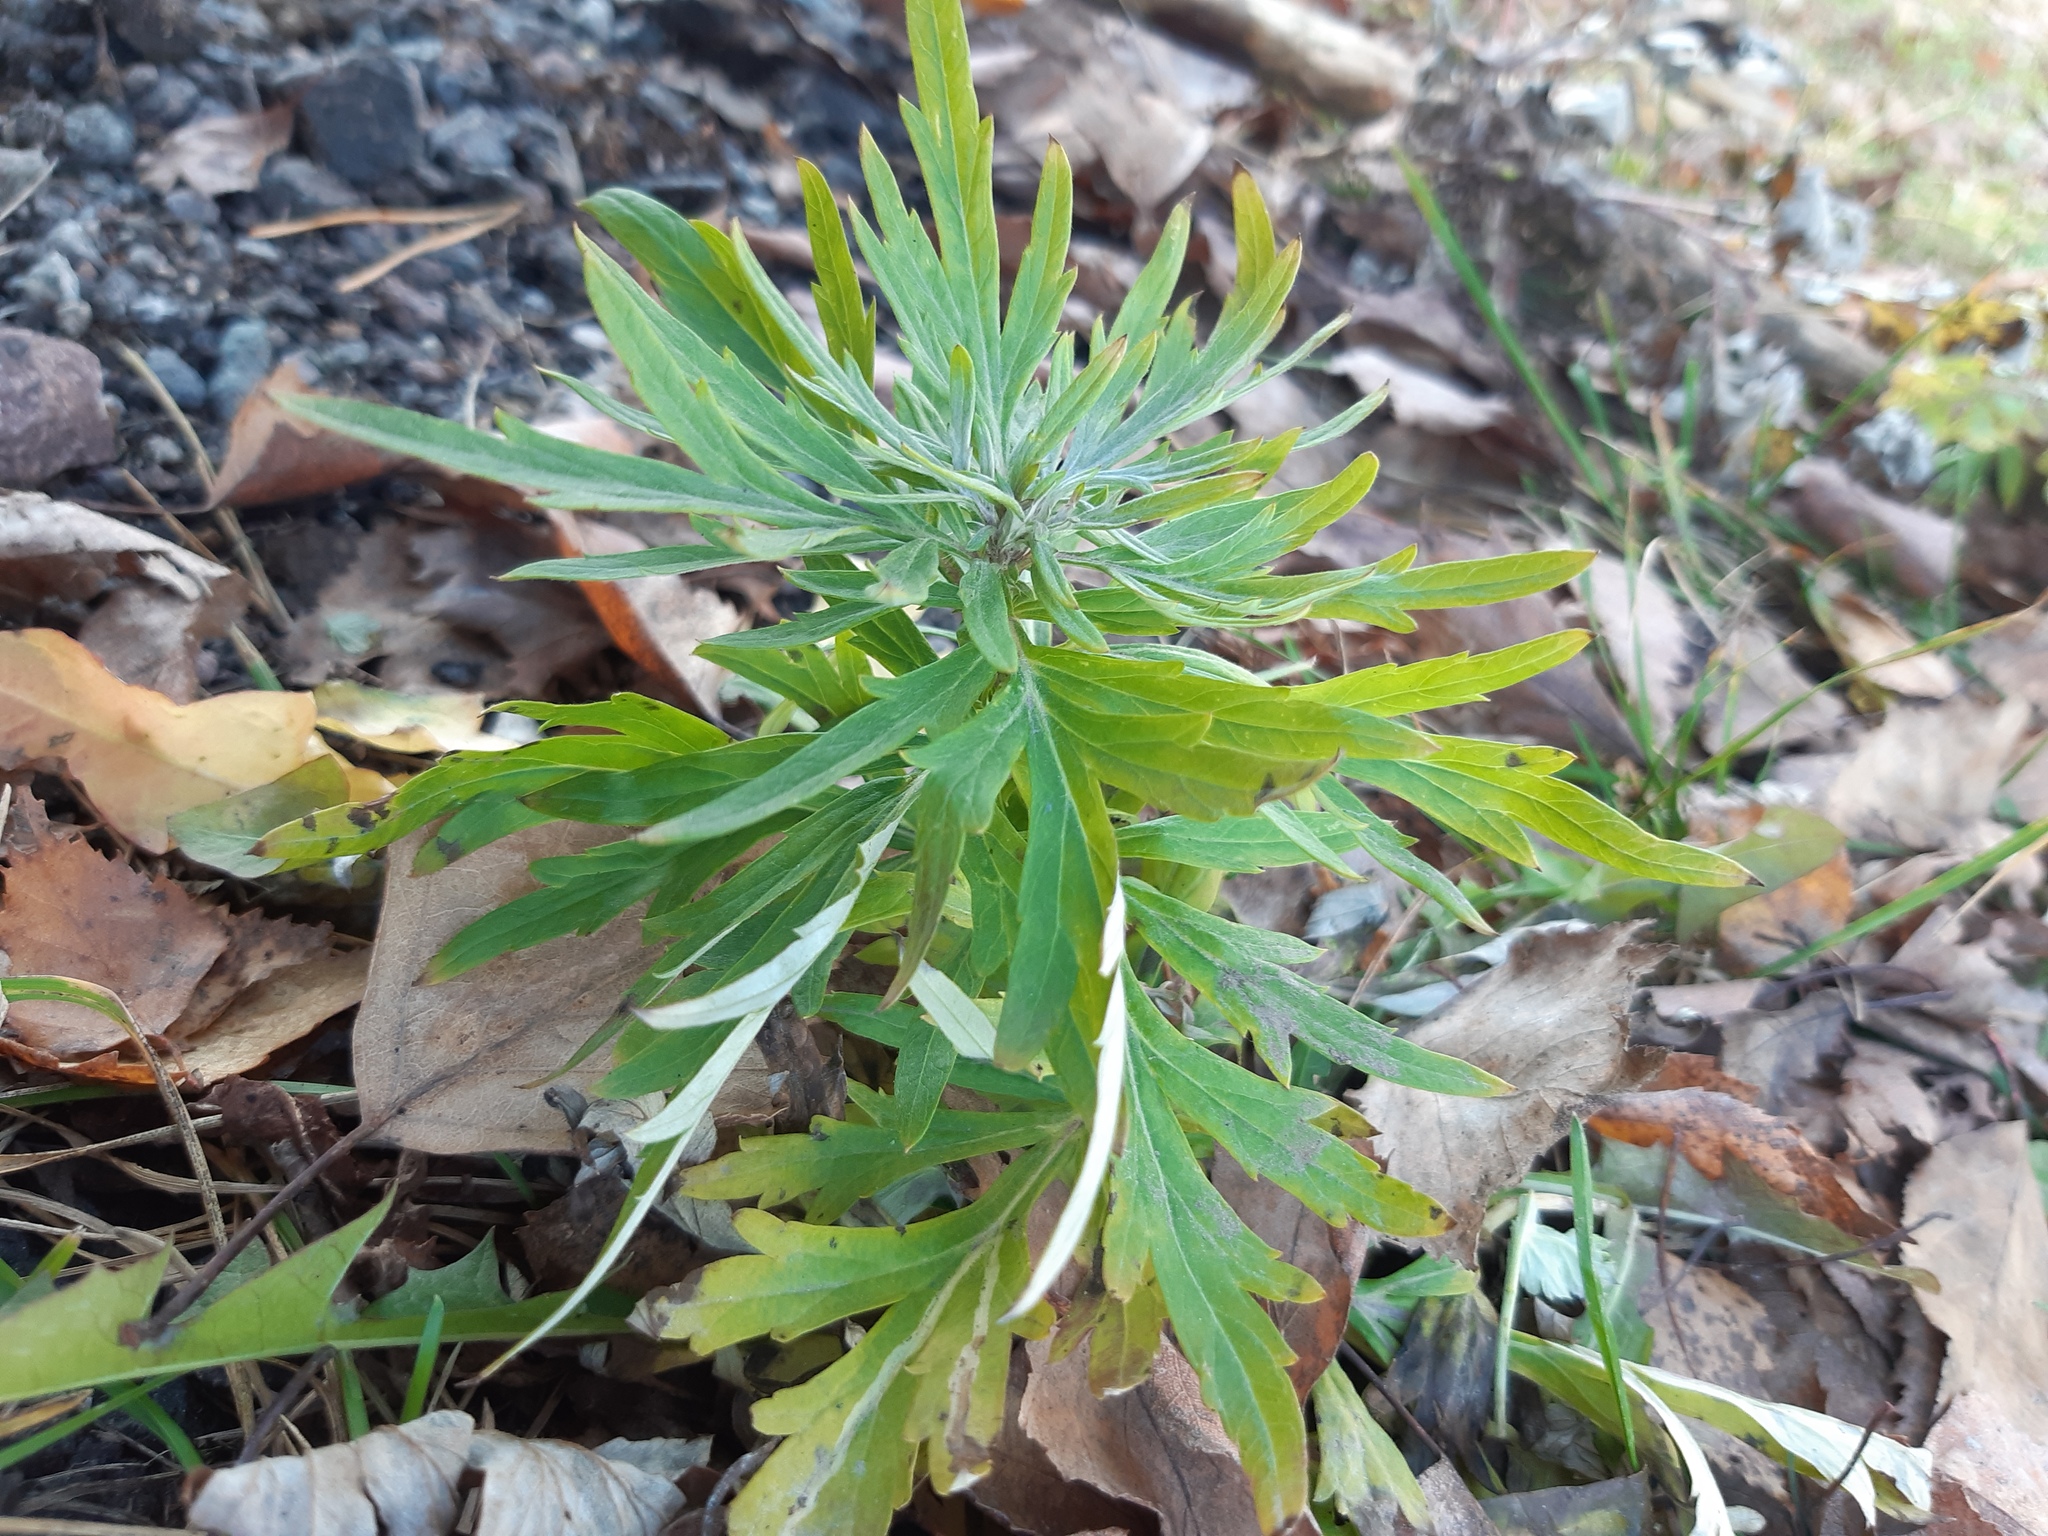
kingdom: Plantae
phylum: Tracheophyta
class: Magnoliopsida
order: Asterales
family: Asteraceae
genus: Artemisia
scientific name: Artemisia vulgaris
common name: Mugwort
